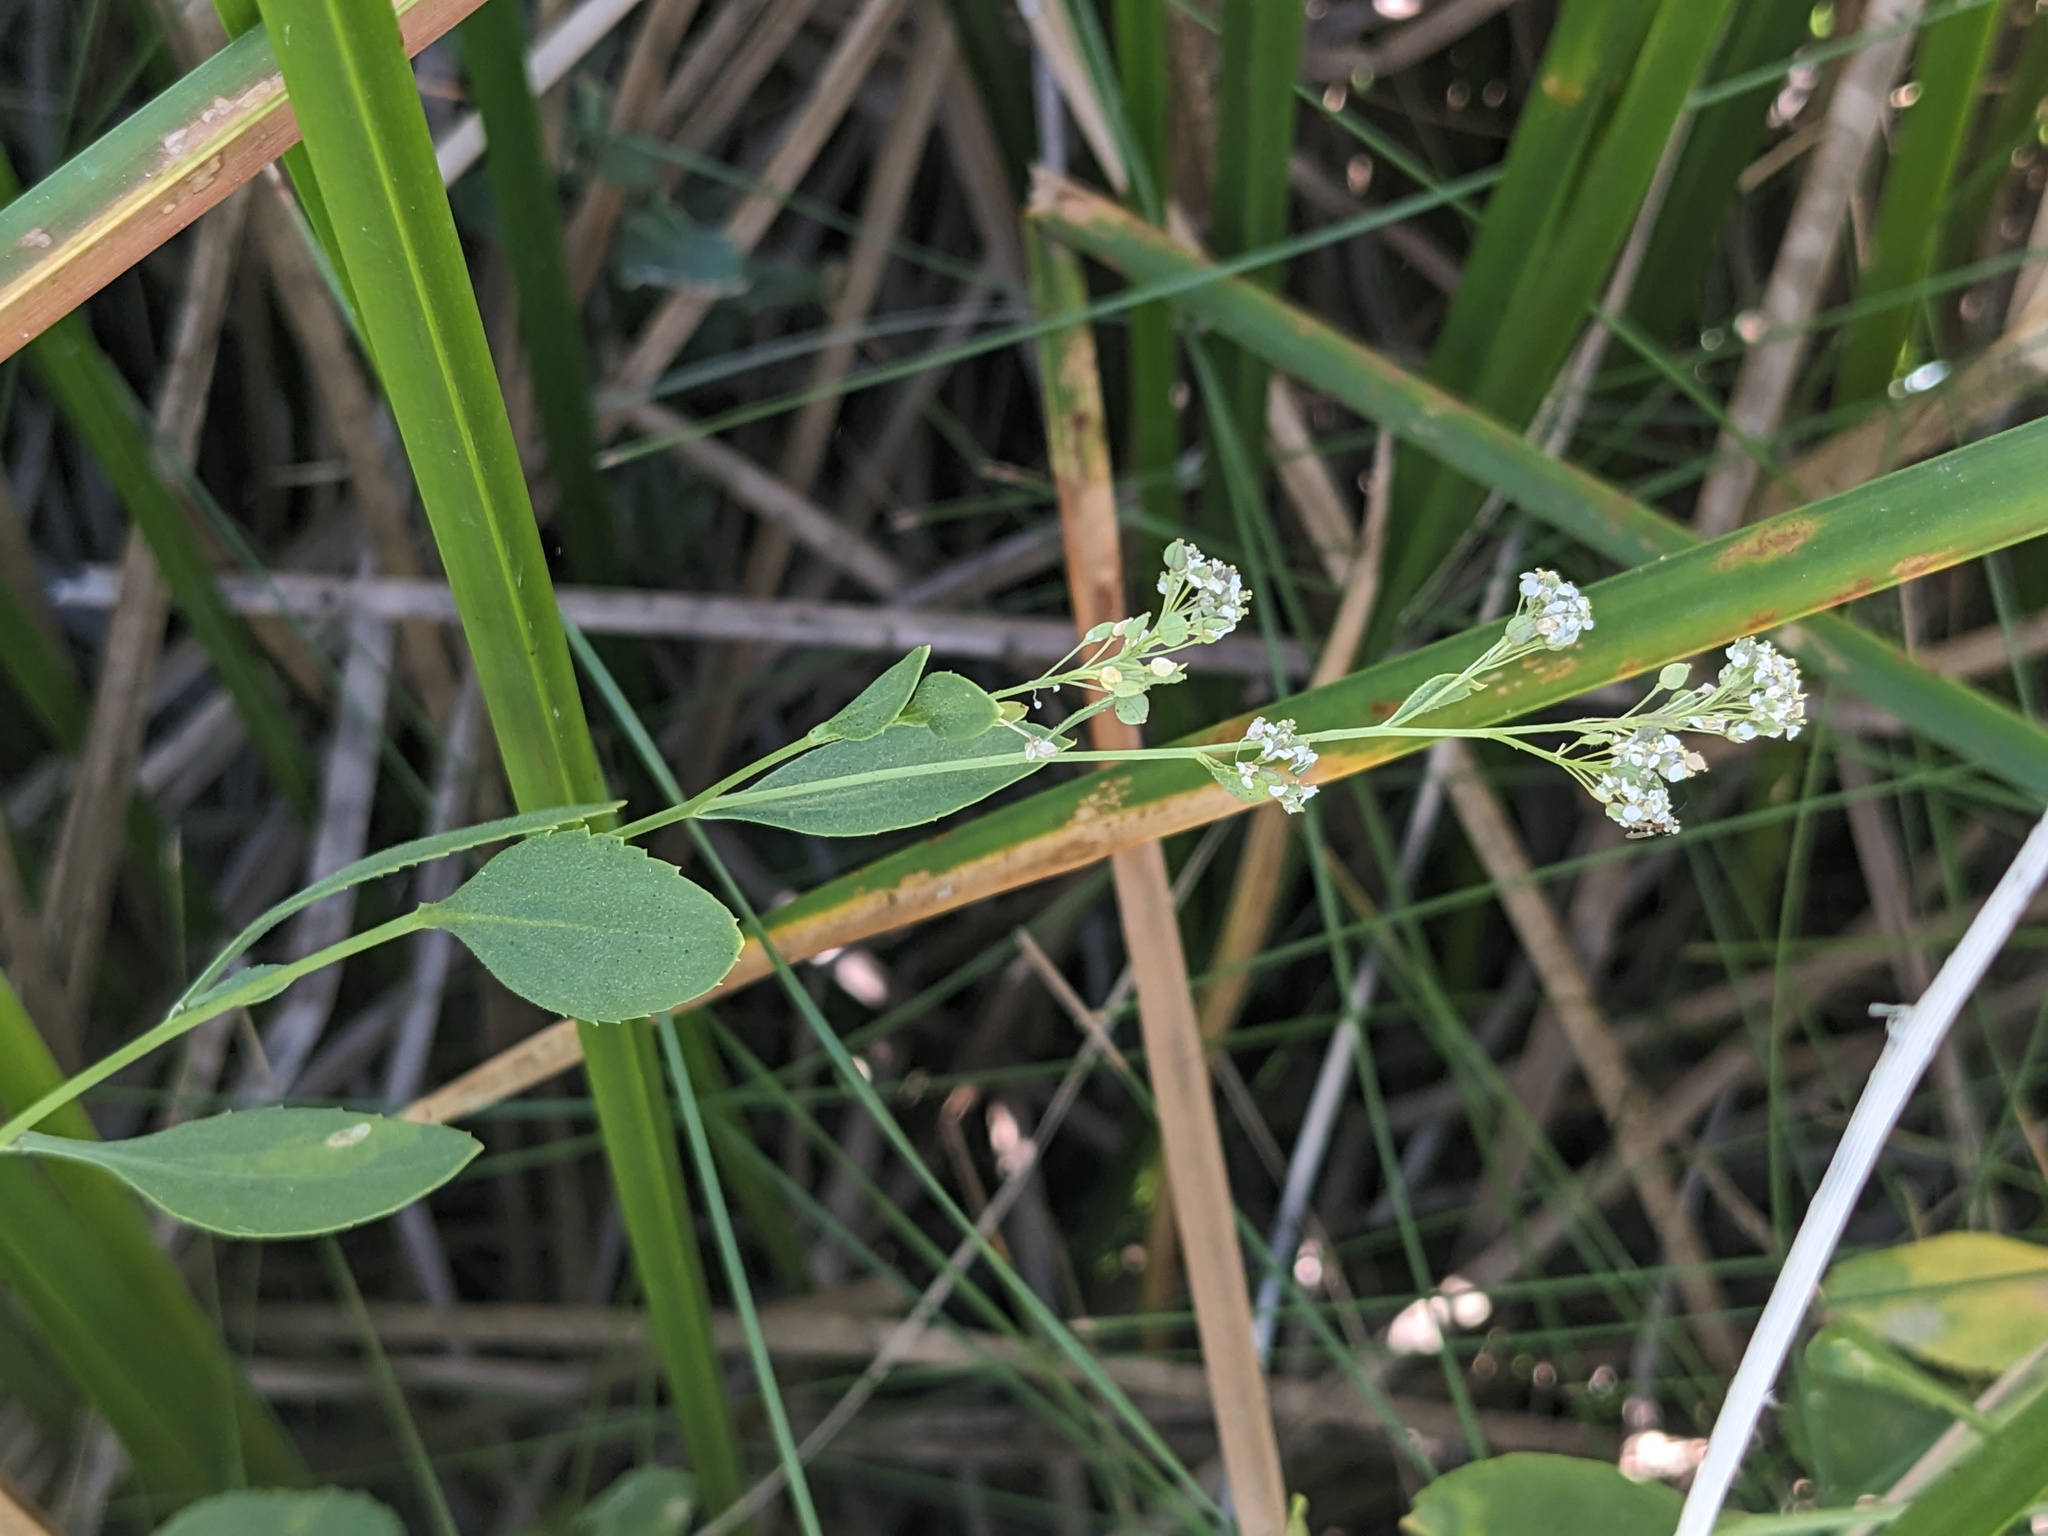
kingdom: Plantae
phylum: Tracheophyta
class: Magnoliopsida
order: Brassicales
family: Brassicaceae
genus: Lepidium
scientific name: Lepidium latifolium
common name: Dittander
